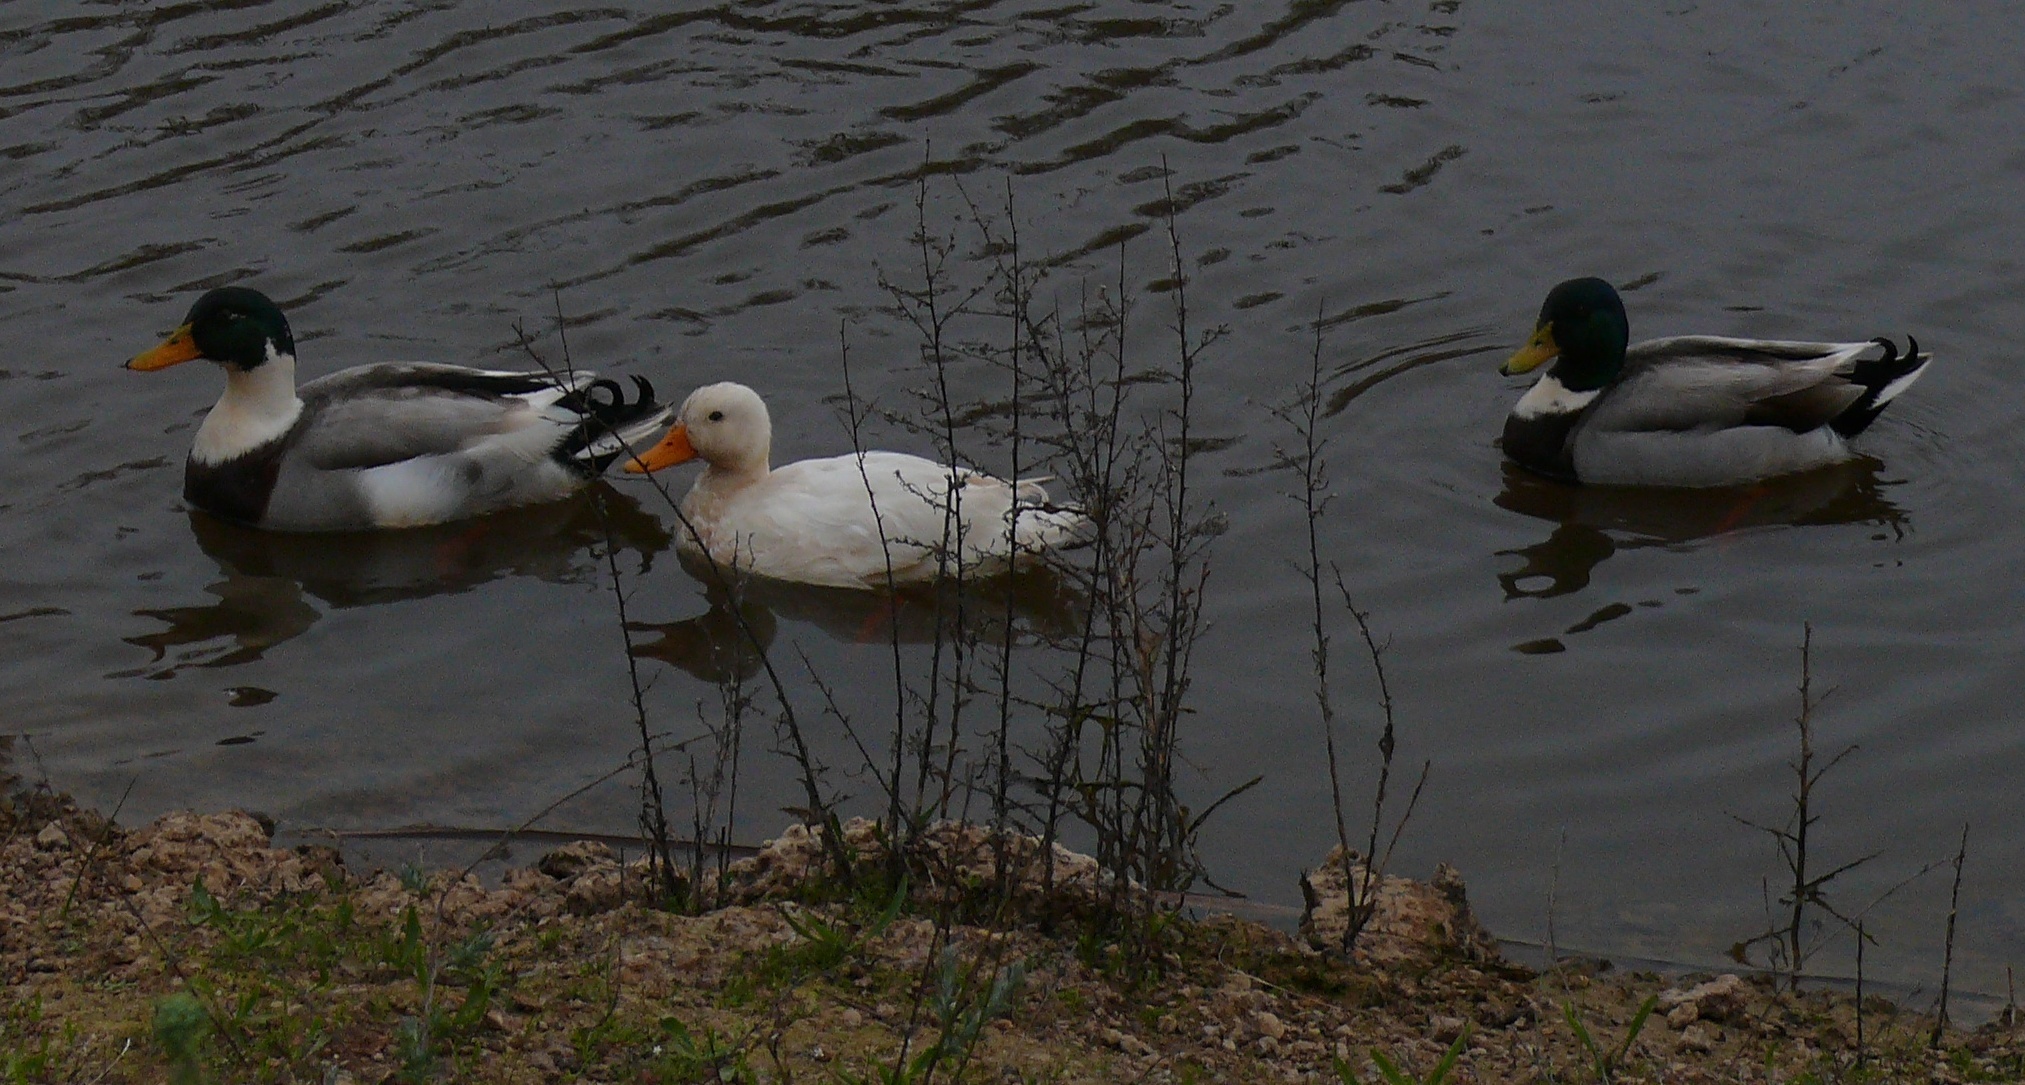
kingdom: Animalia
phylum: Chordata
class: Aves
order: Anseriformes
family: Anatidae
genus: Anas
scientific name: Anas platyrhynchos
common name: Mallard
